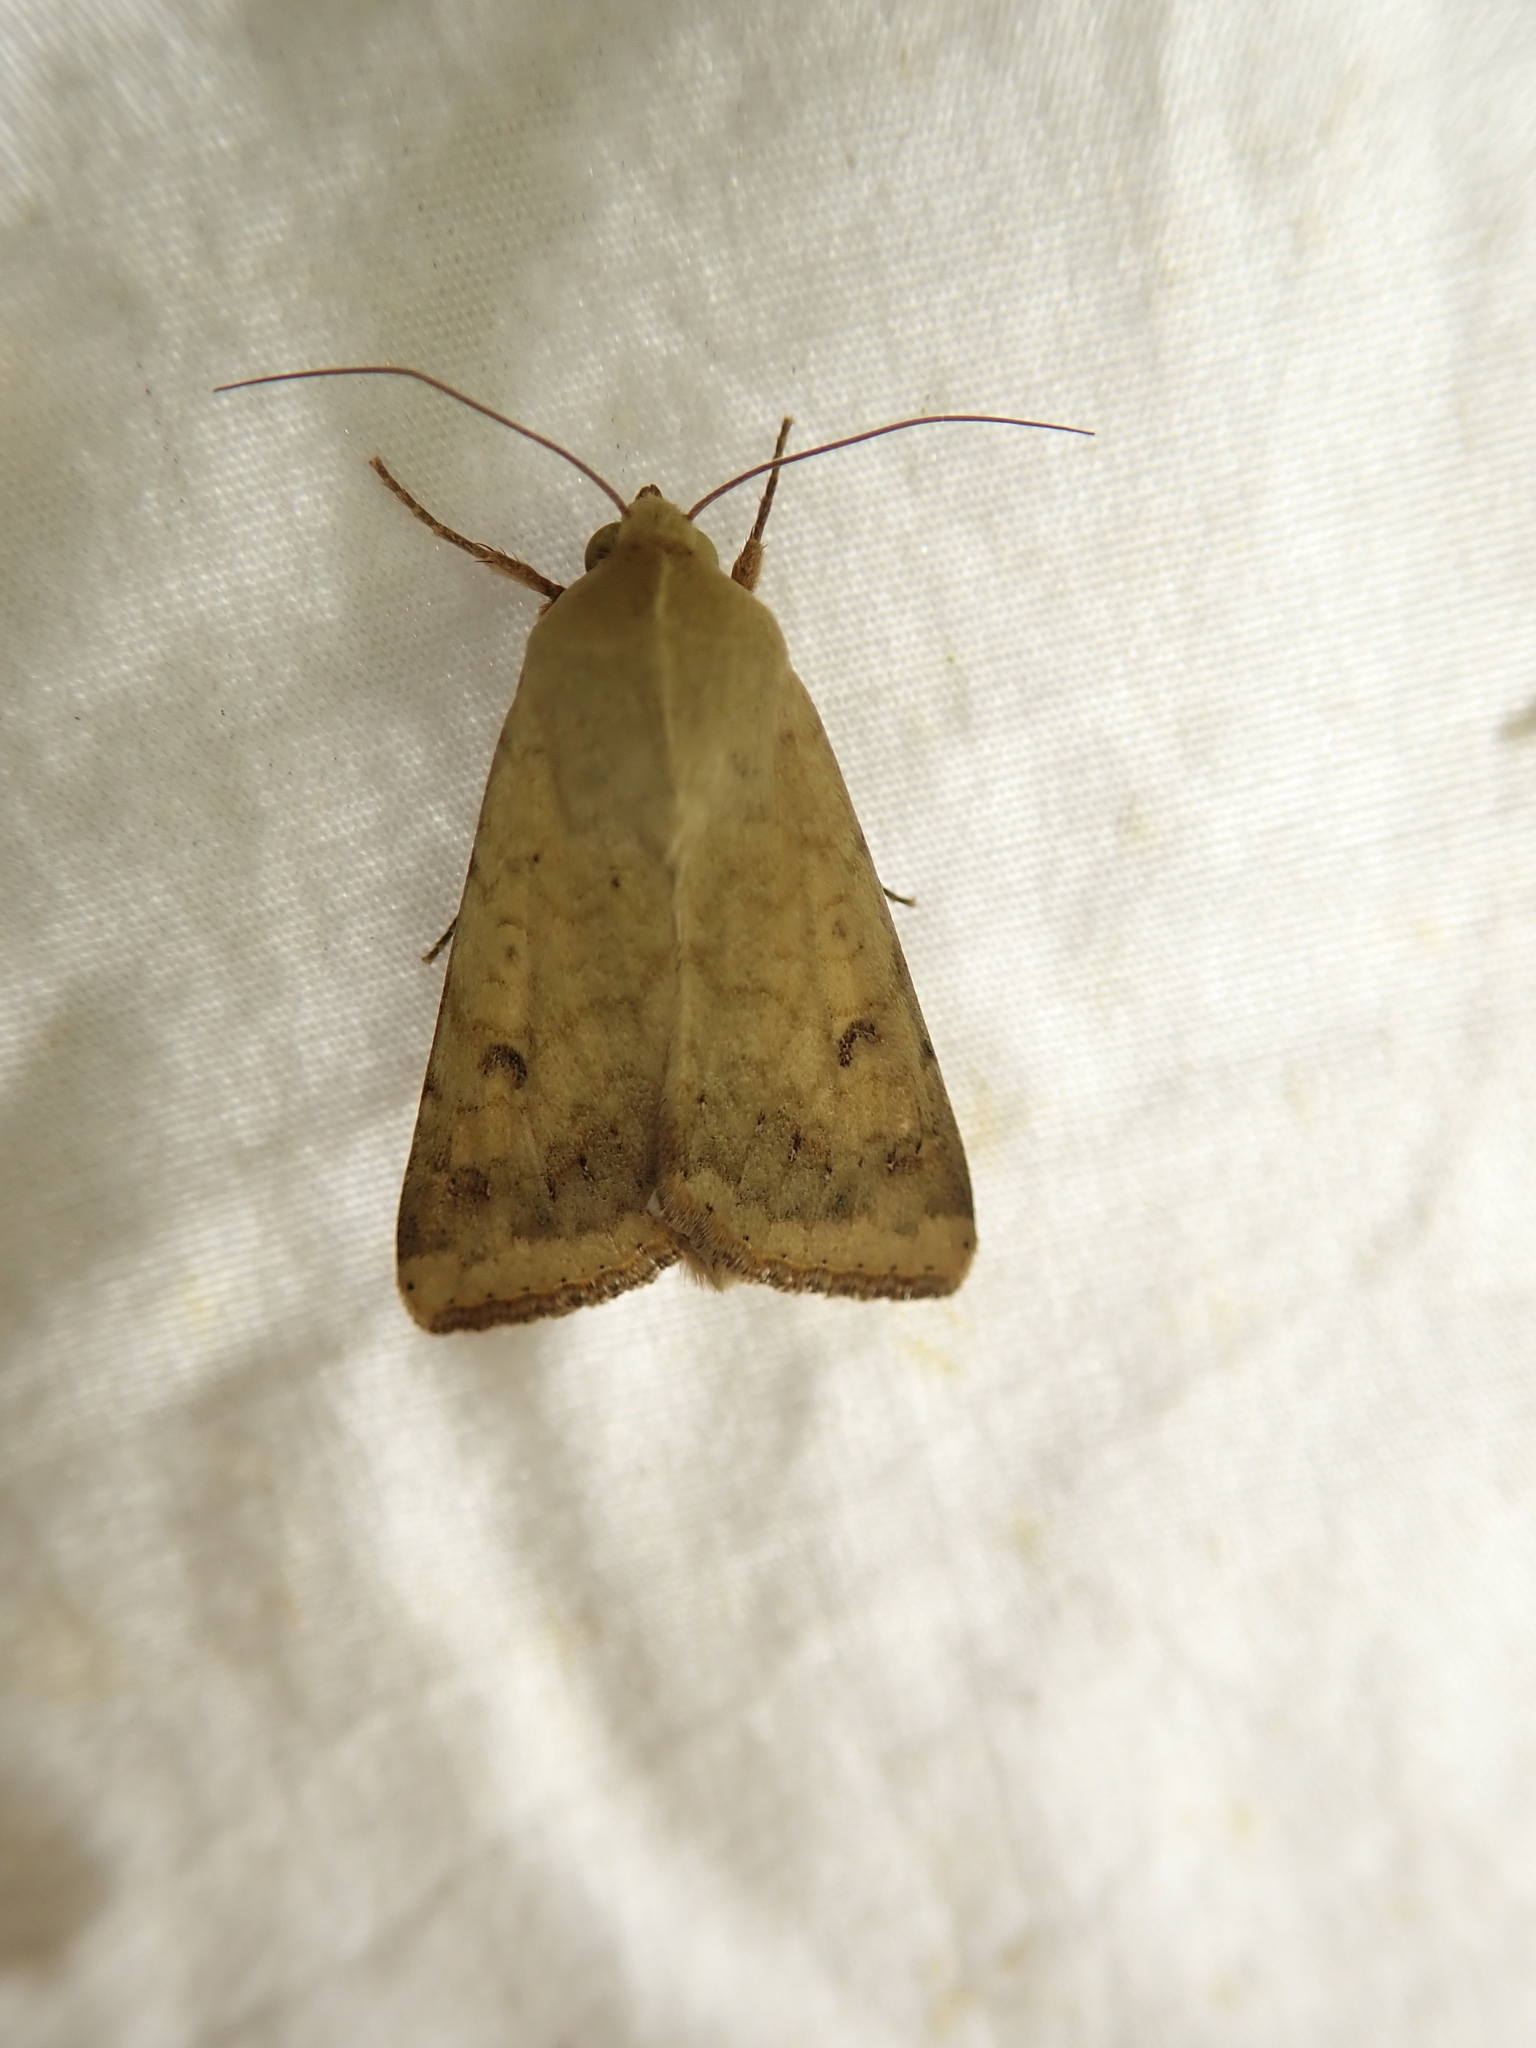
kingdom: Animalia
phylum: Arthropoda
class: Insecta
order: Lepidoptera
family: Noctuidae
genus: Helicoverpa
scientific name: Helicoverpa zea
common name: Bollworm
